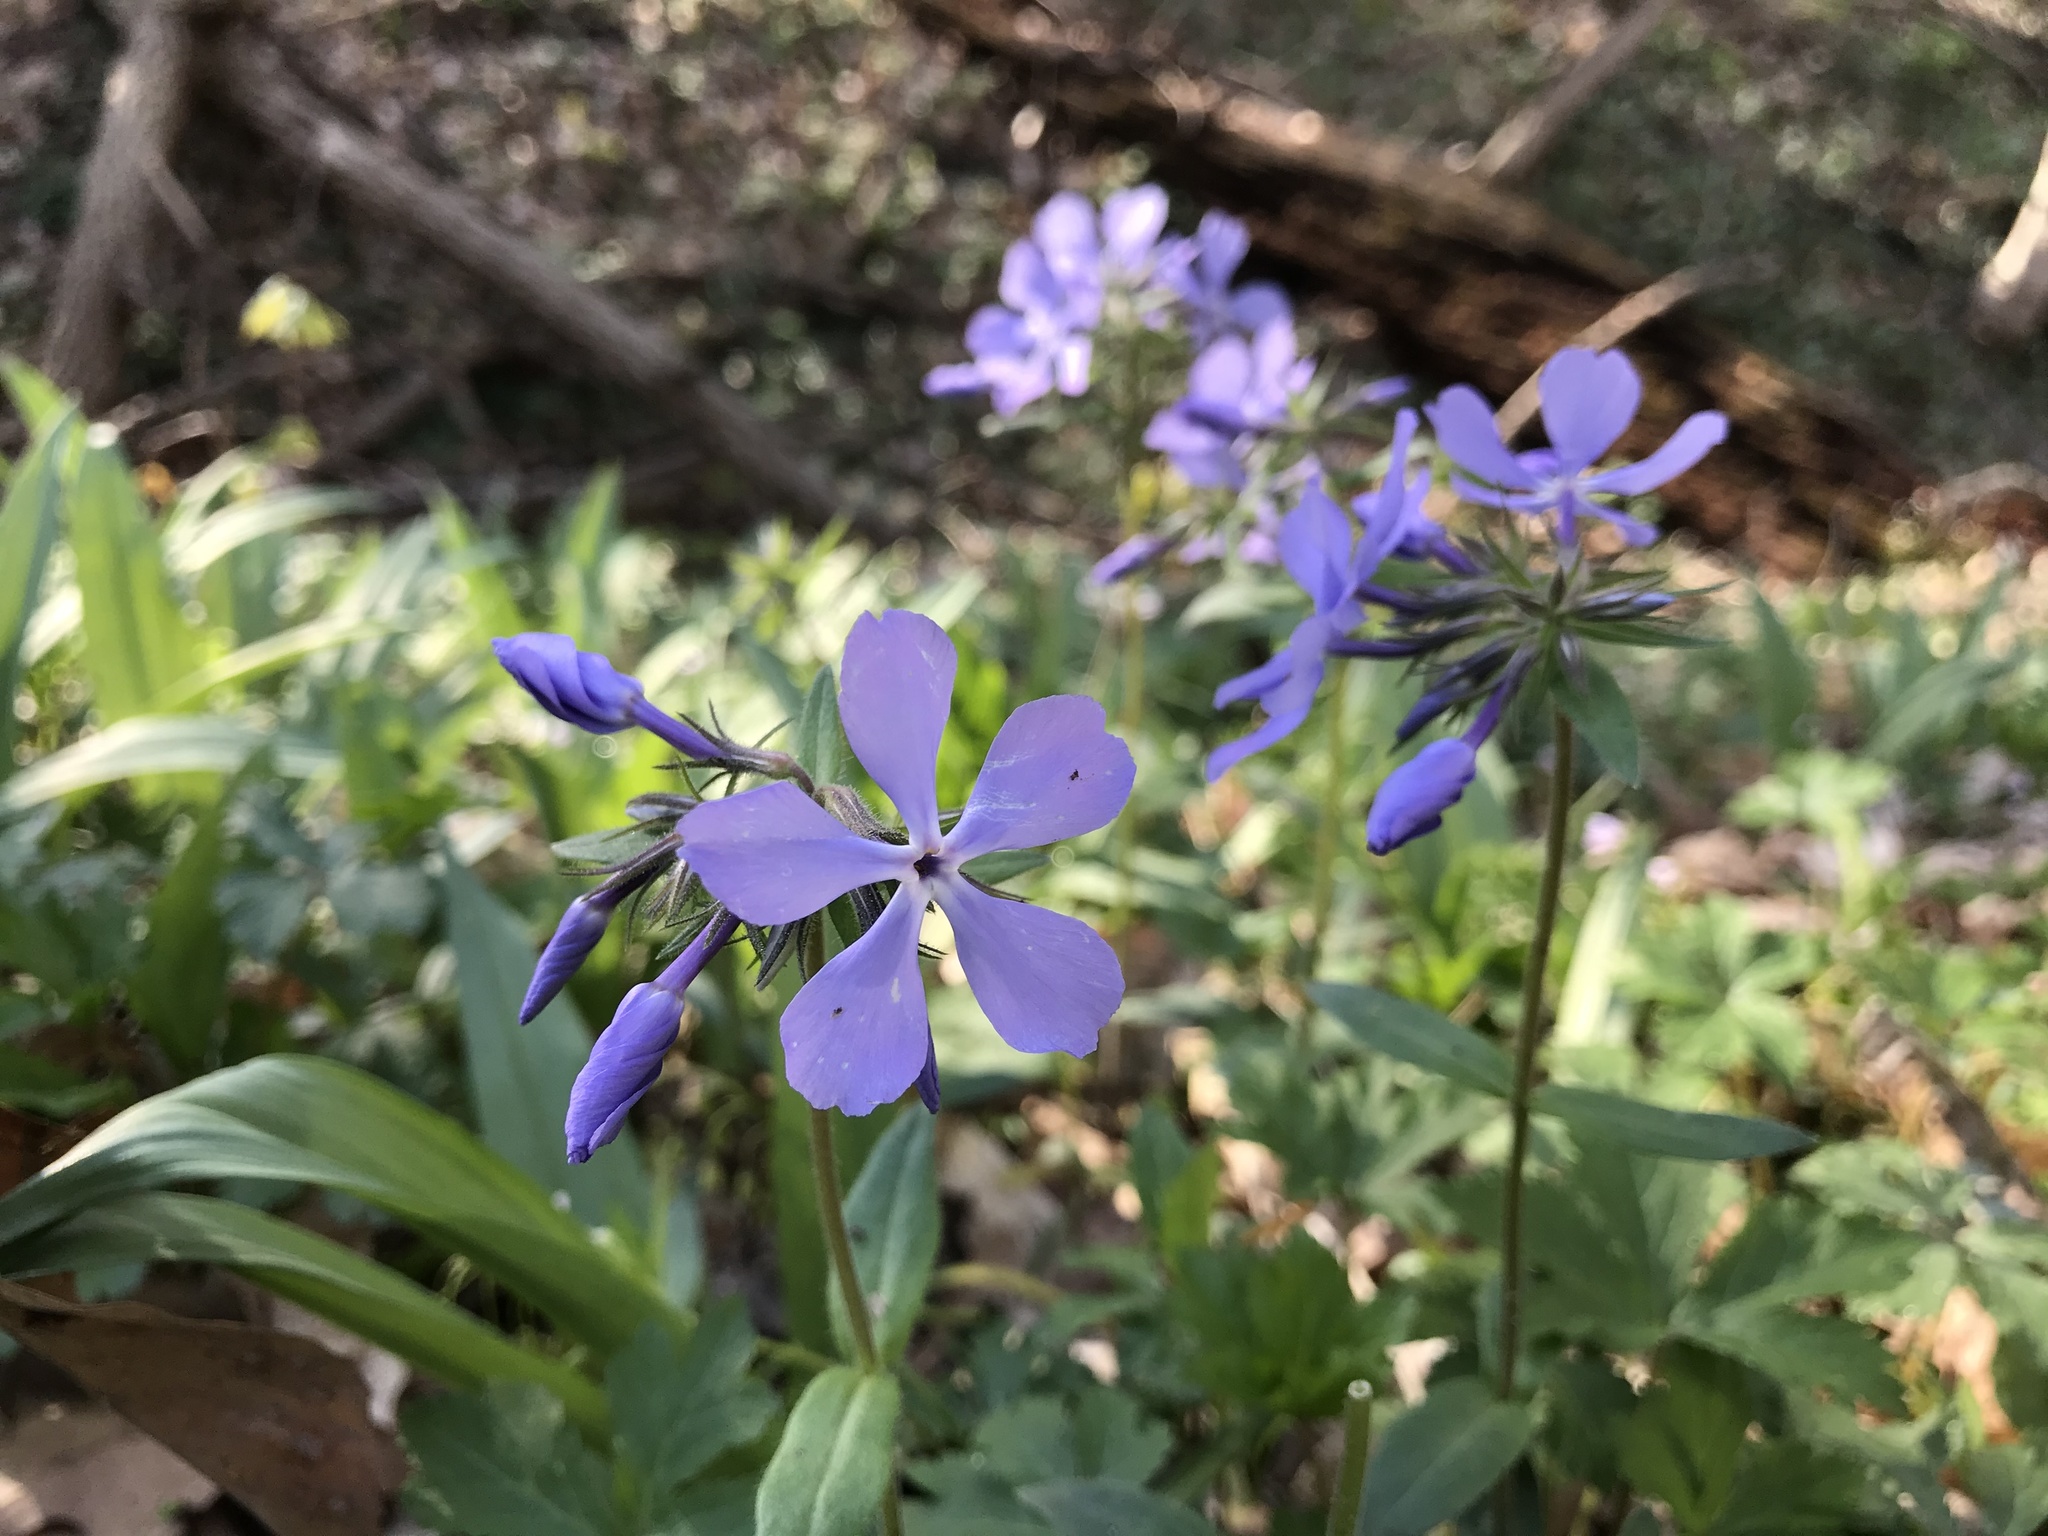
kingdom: Plantae
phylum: Tracheophyta
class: Magnoliopsida
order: Ericales
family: Polemoniaceae
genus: Phlox
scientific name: Phlox divaricata
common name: Blue phlox
